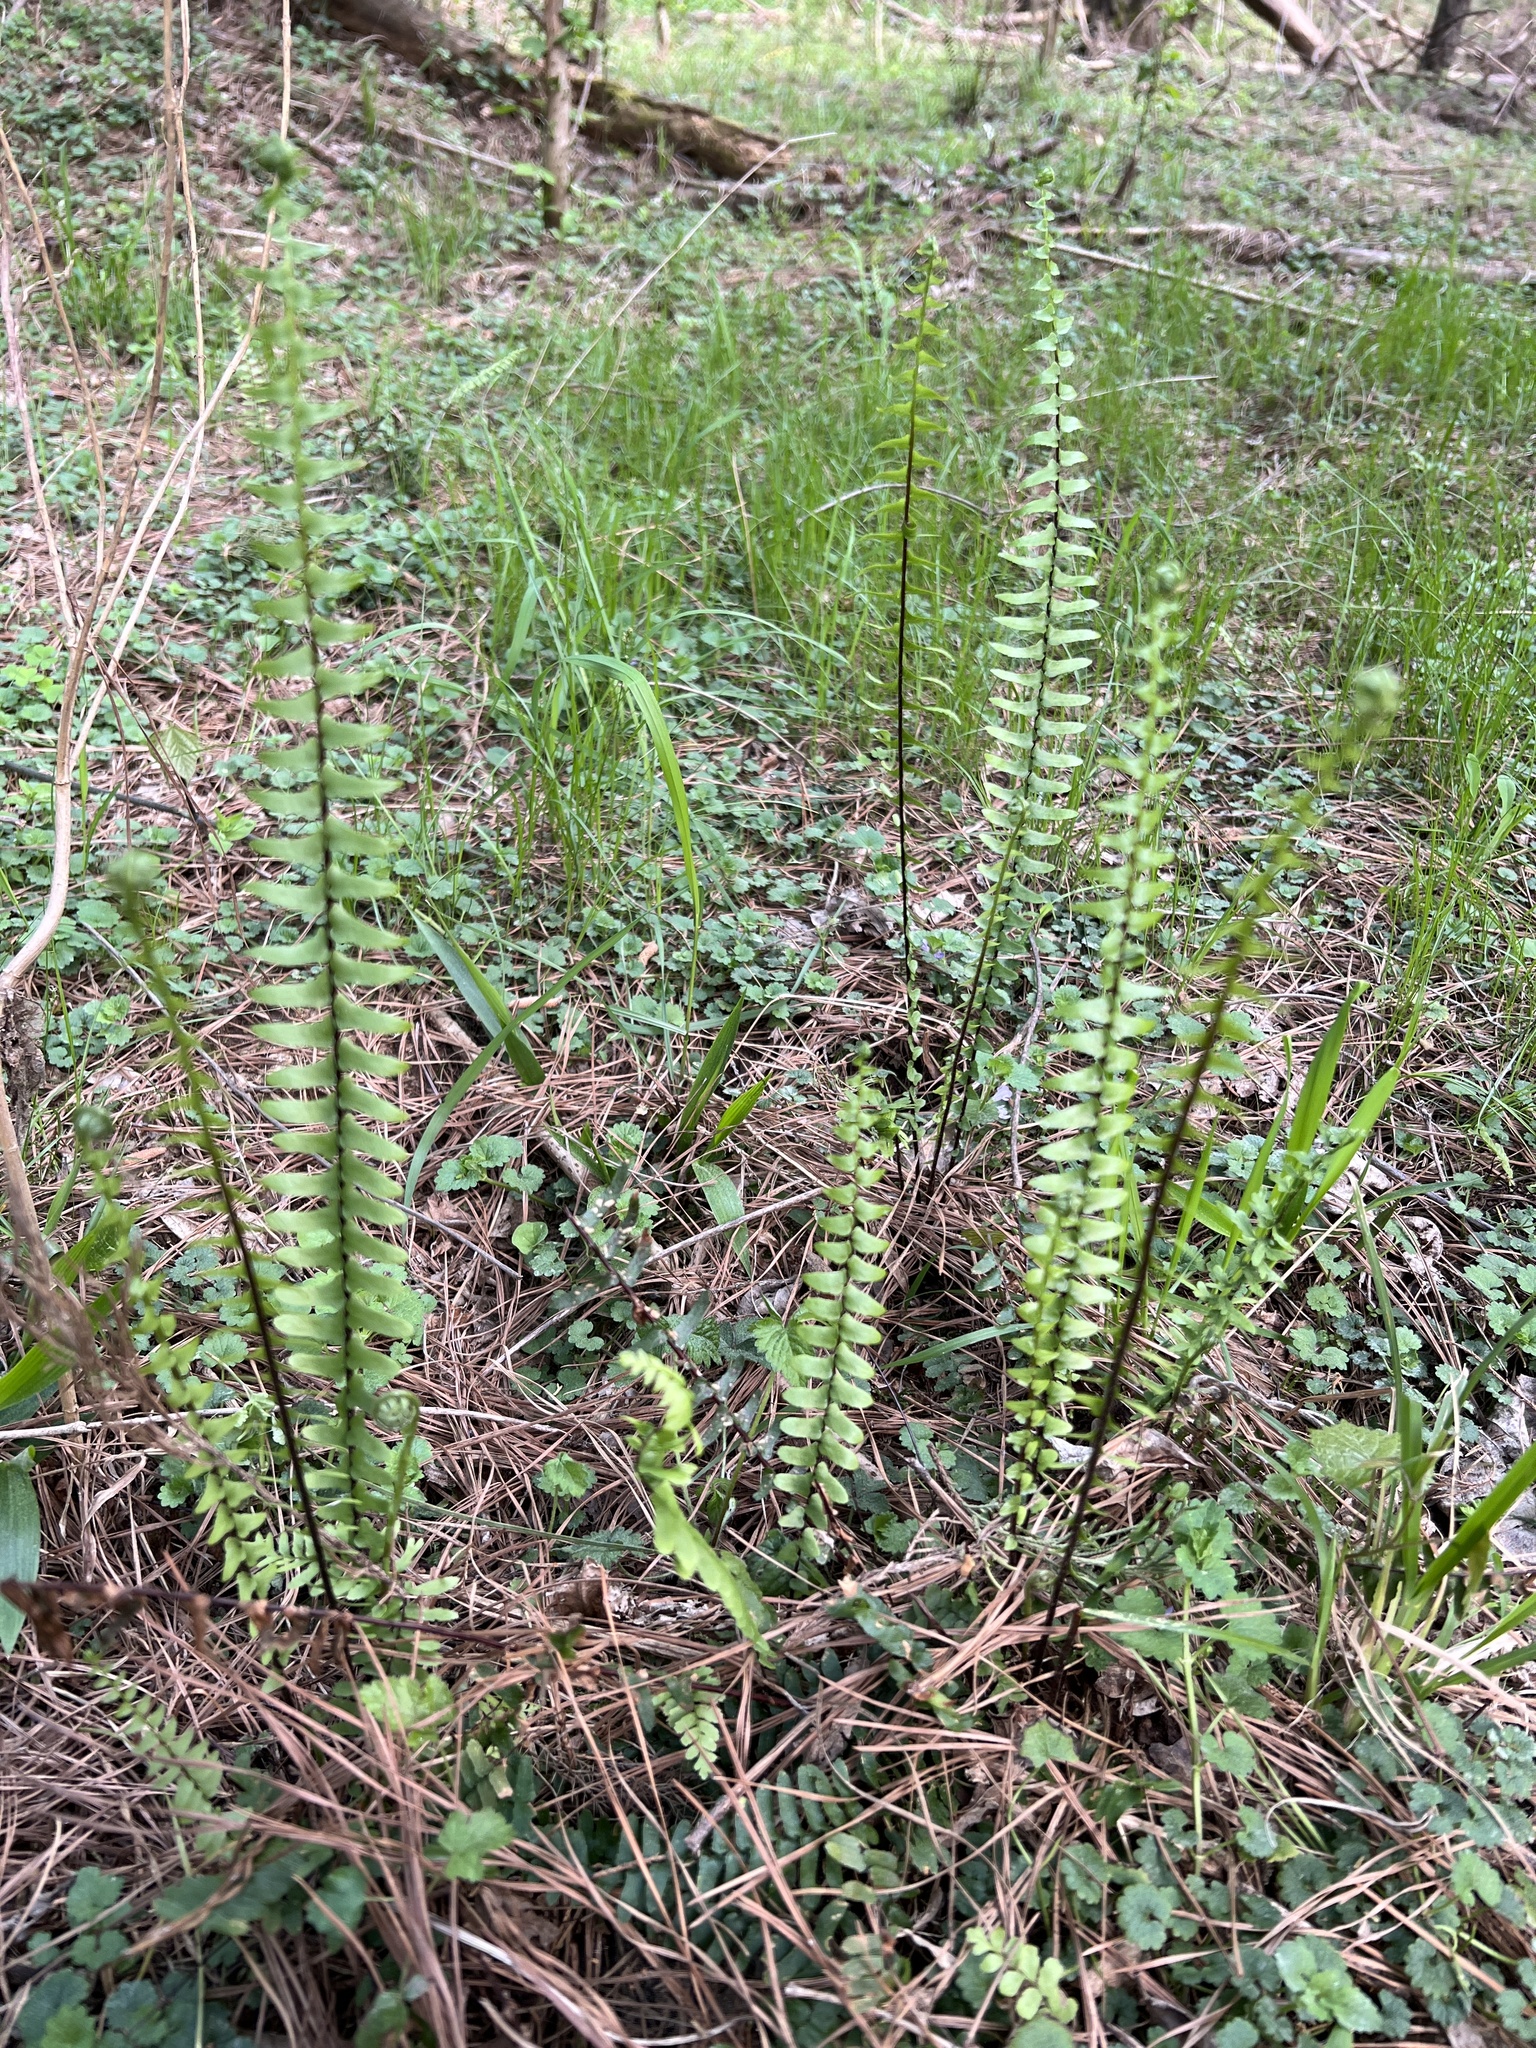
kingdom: Plantae
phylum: Tracheophyta
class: Polypodiopsida
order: Polypodiales
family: Aspleniaceae
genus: Asplenium
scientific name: Asplenium platyneuron
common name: Ebony spleenwort
